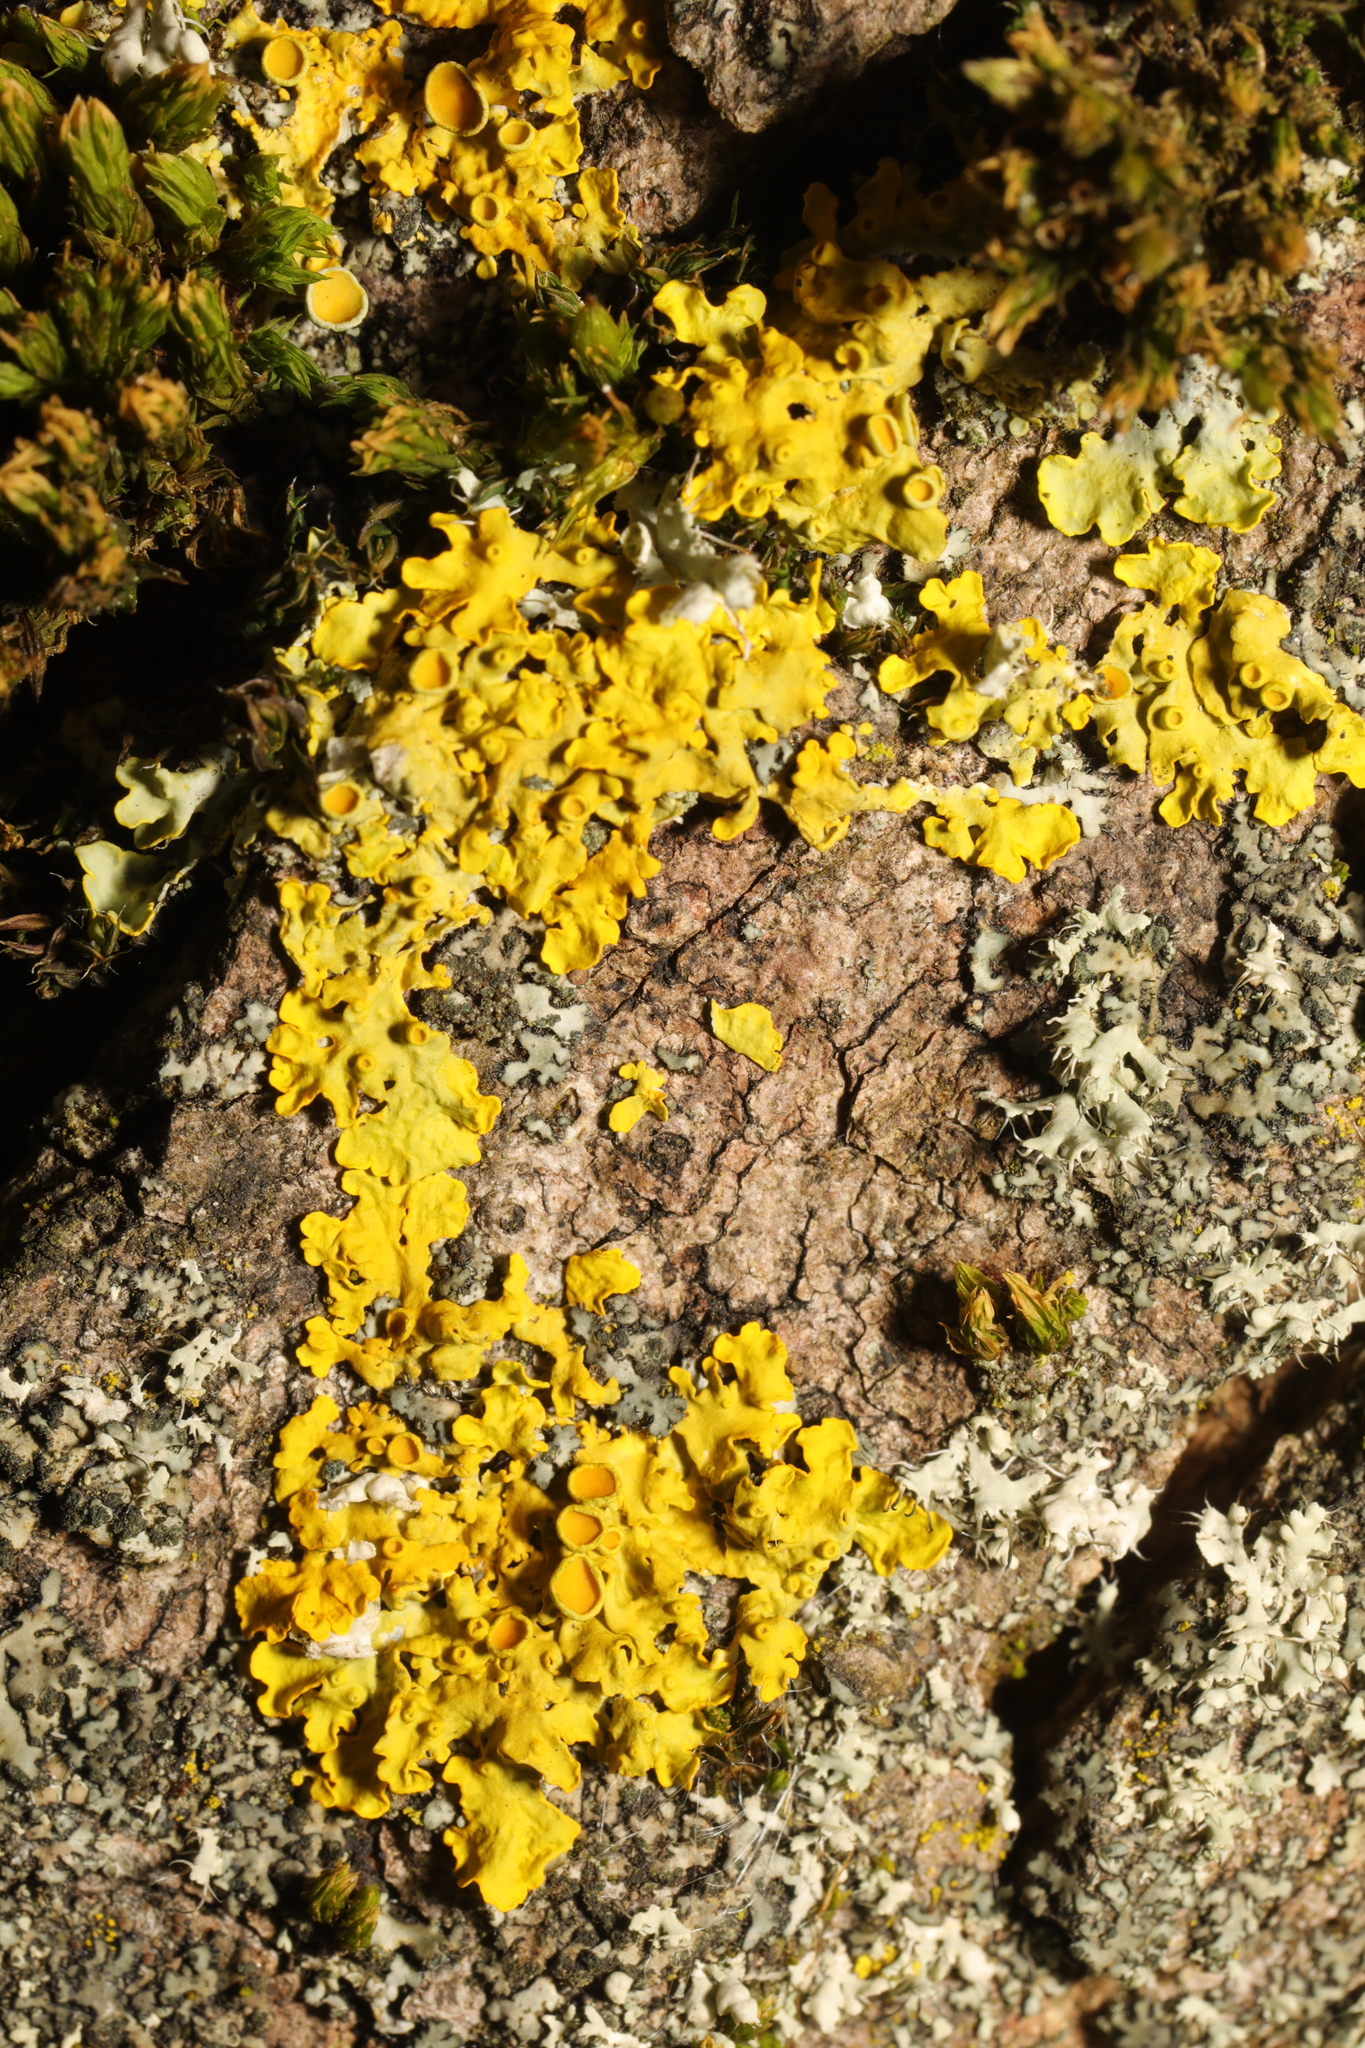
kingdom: Fungi
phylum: Ascomycota
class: Lecanoromycetes
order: Teloschistales
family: Teloschistaceae
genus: Xanthoria
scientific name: Xanthoria parietina
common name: Common orange lichen
